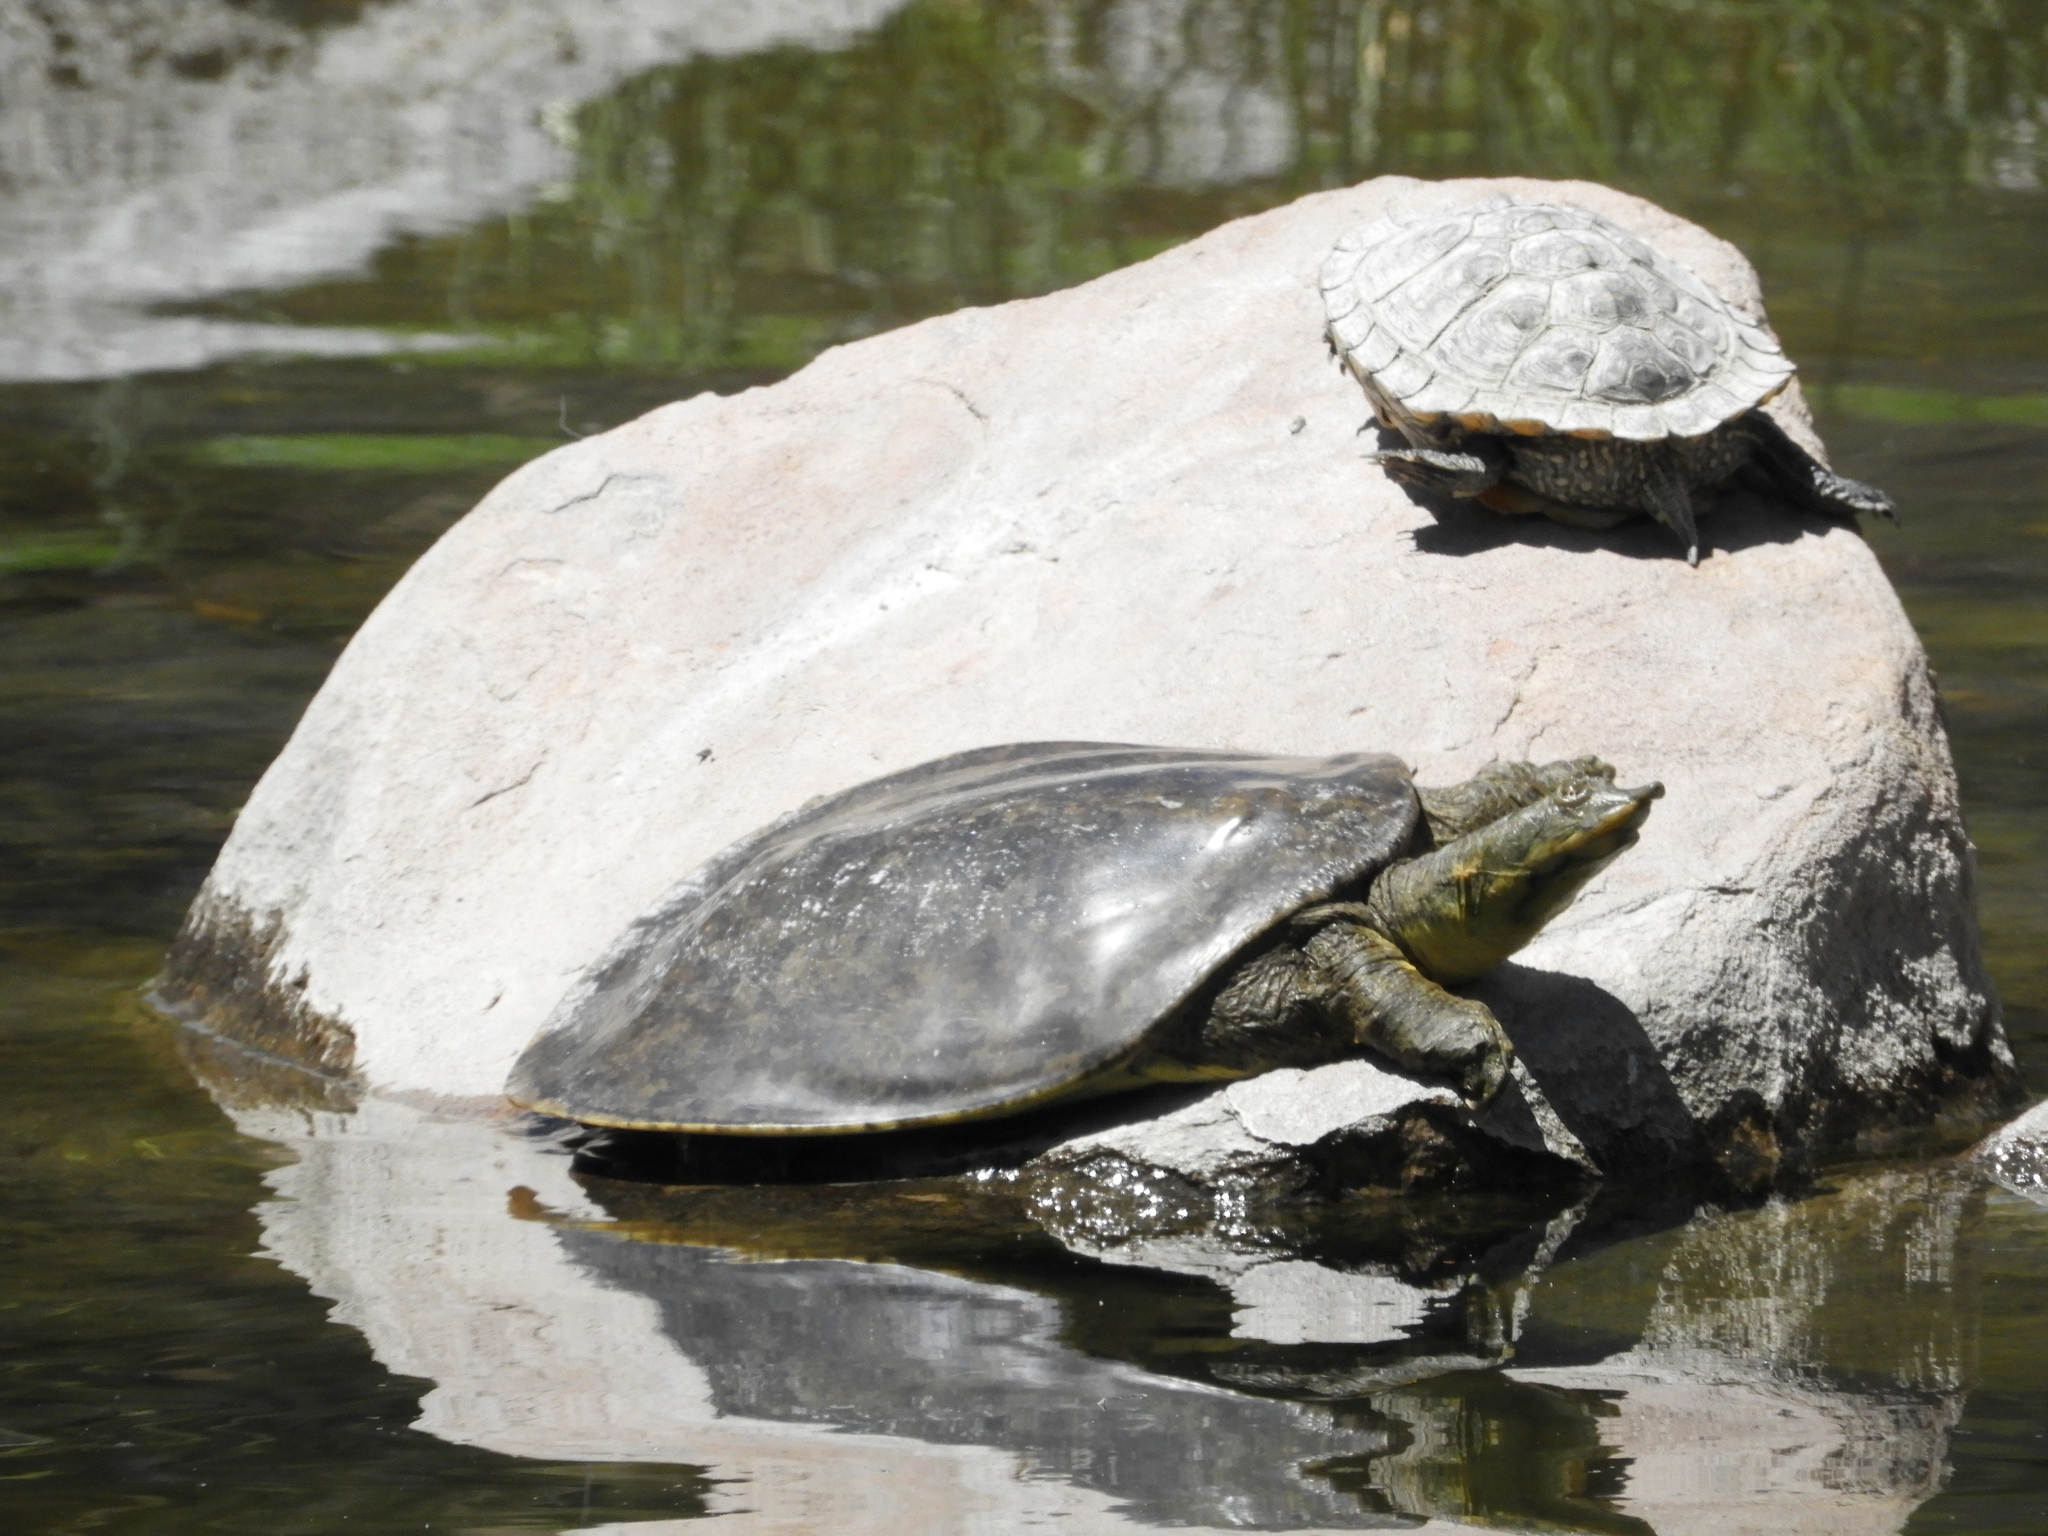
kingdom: Animalia
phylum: Chordata
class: Testudines
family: Trionychidae
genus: Apalone
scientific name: Apalone spinifera
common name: Spiny softshell turtle
